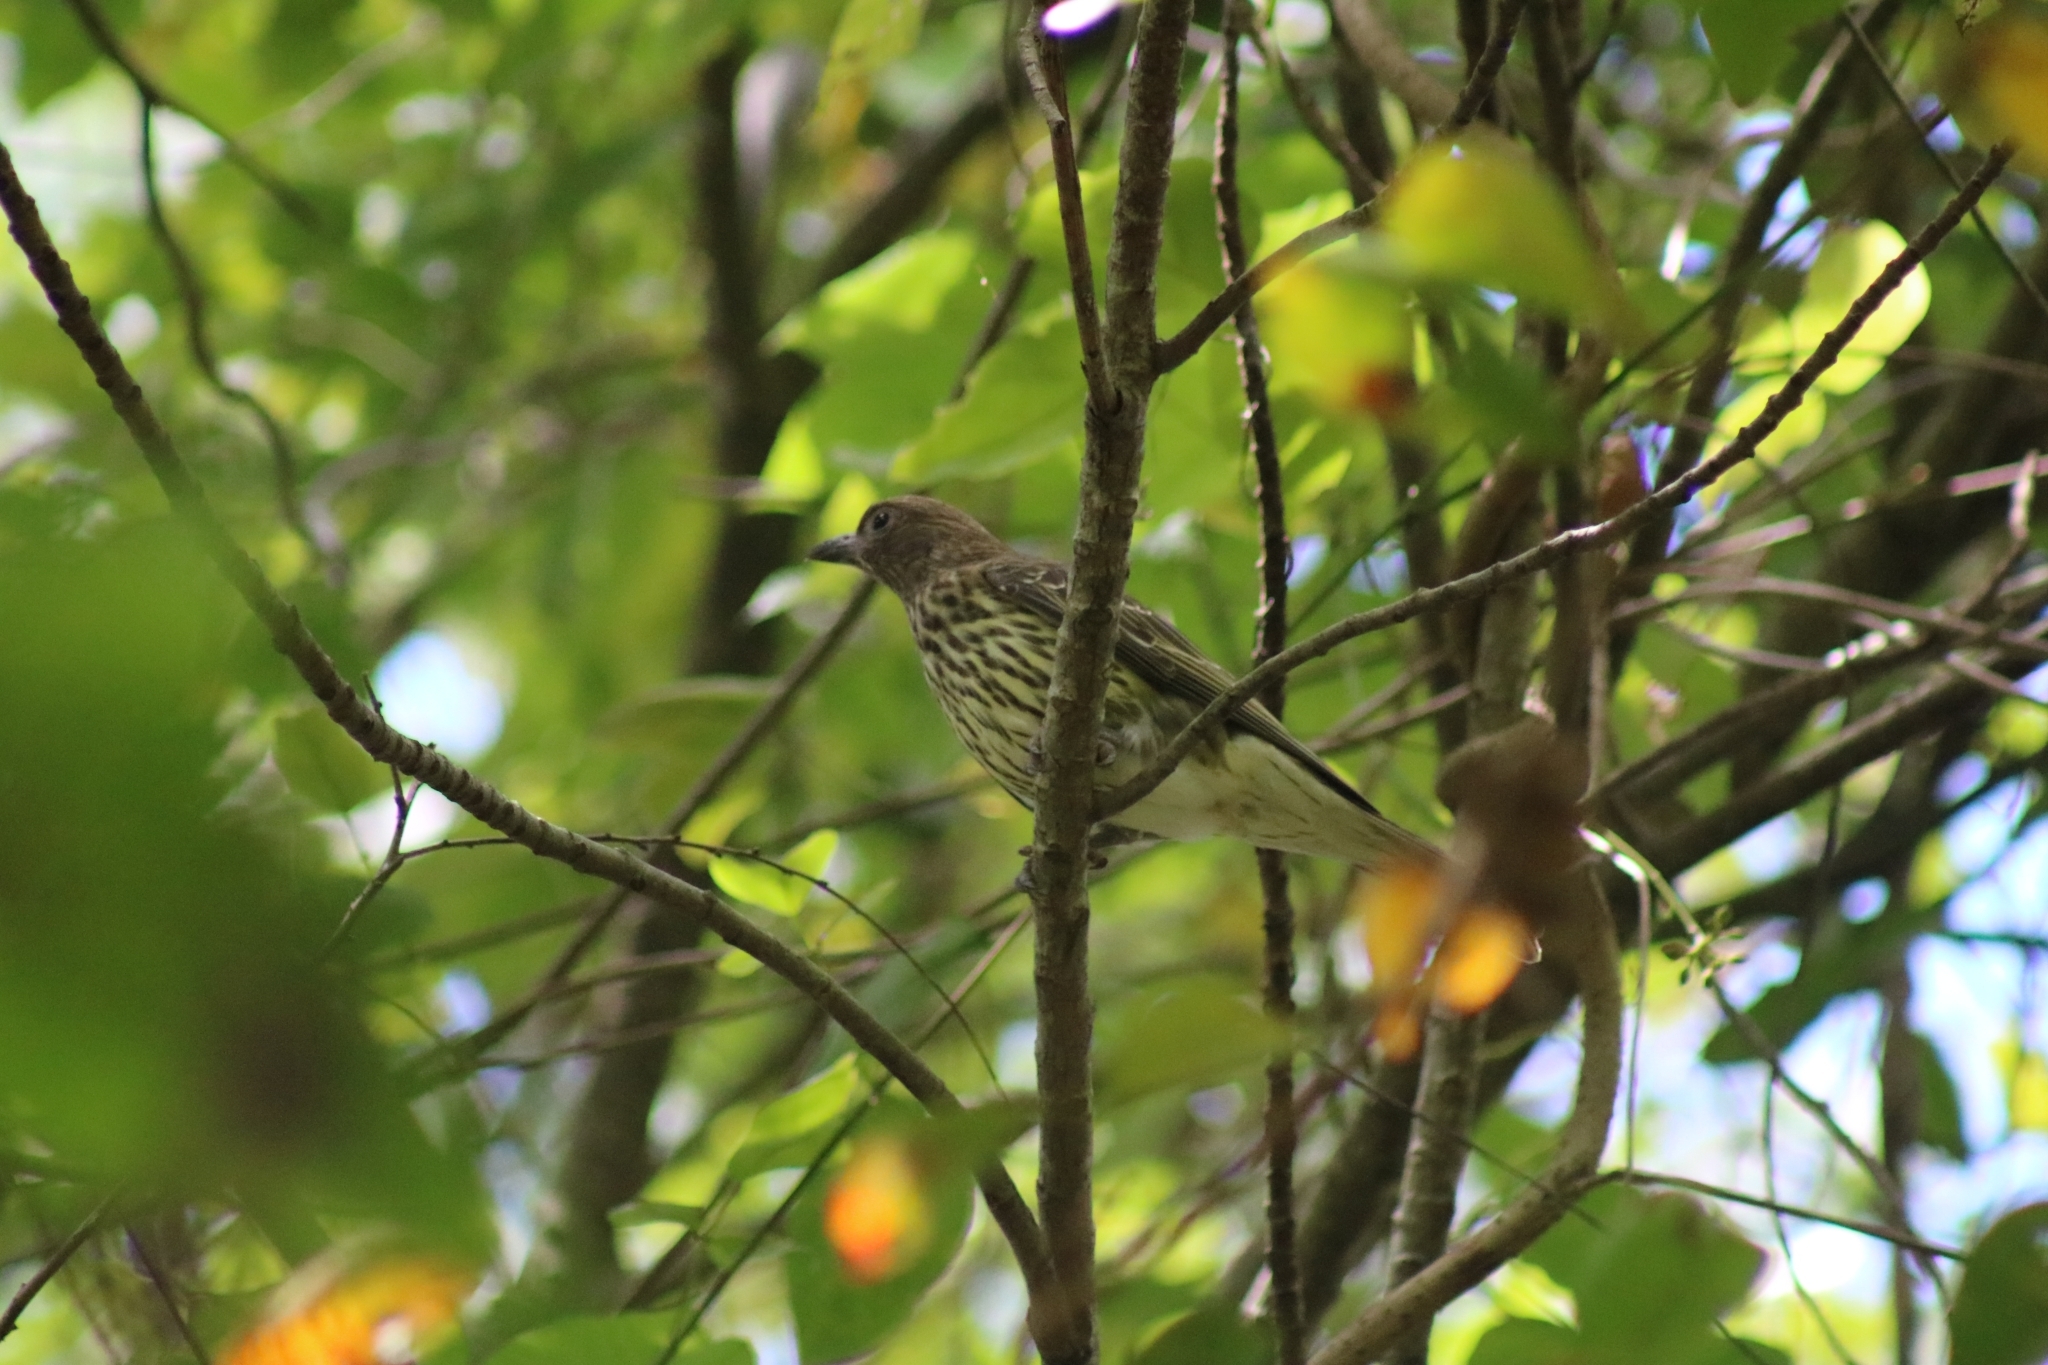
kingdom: Animalia
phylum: Chordata
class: Aves
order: Passeriformes
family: Oriolidae
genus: Sphecotheres
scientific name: Sphecotheres vieilloti
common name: Australasian figbird
